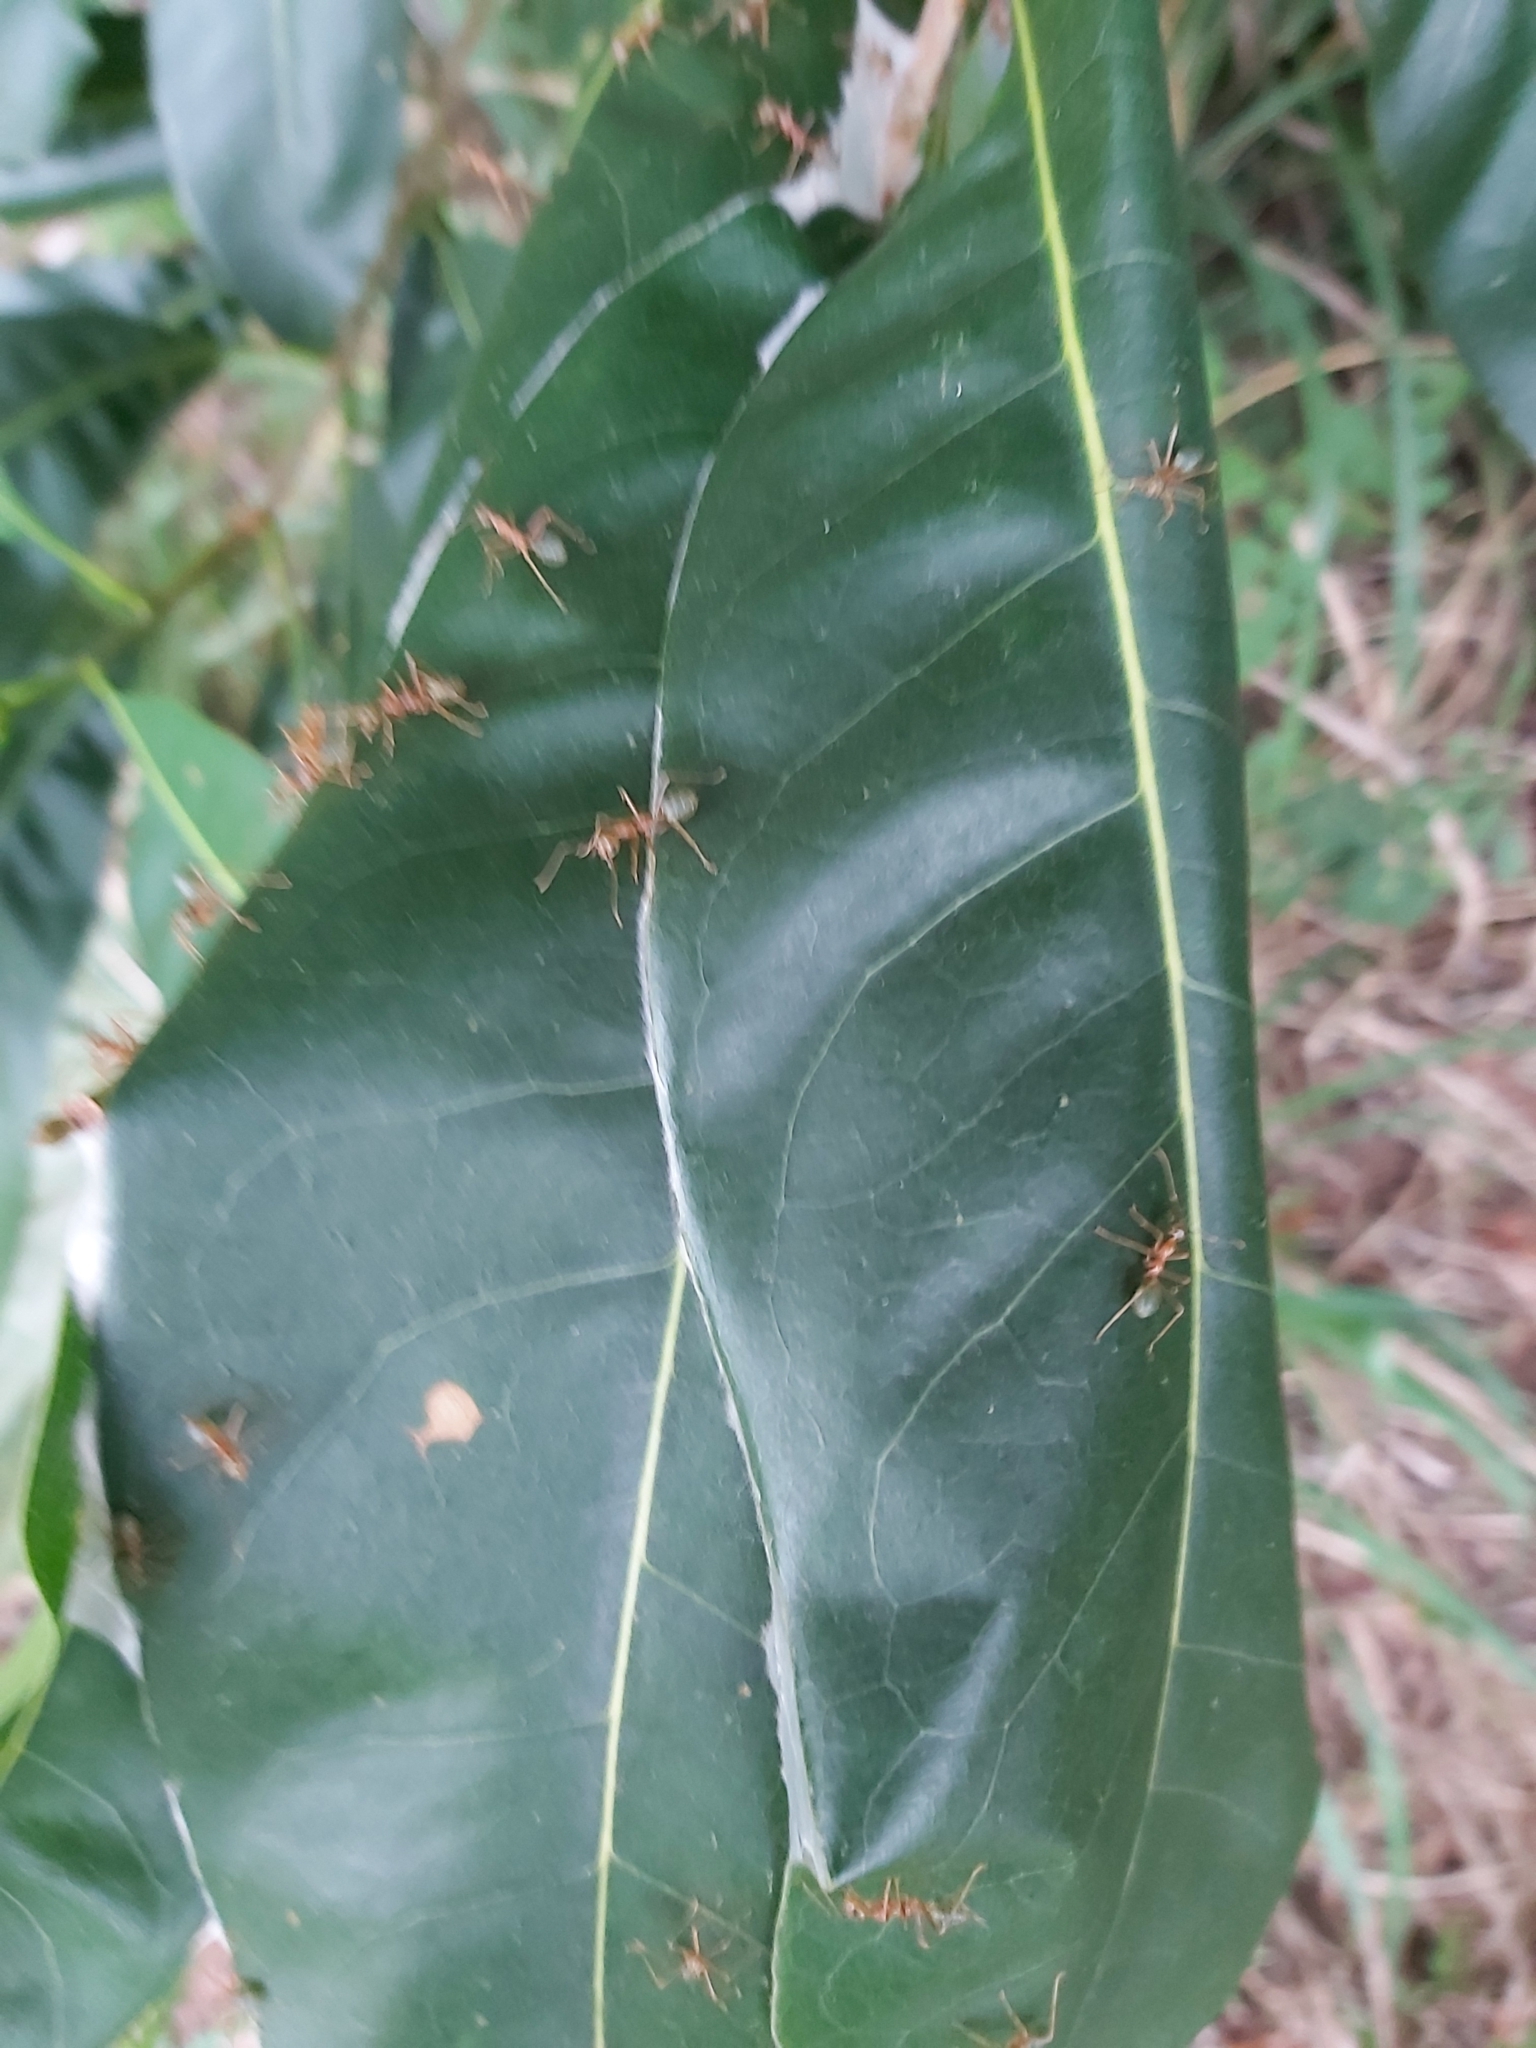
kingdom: Animalia
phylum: Arthropoda
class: Insecta
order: Hymenoptera
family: Formicidae
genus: Oecophylla
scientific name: Oecophylla smaragdina
